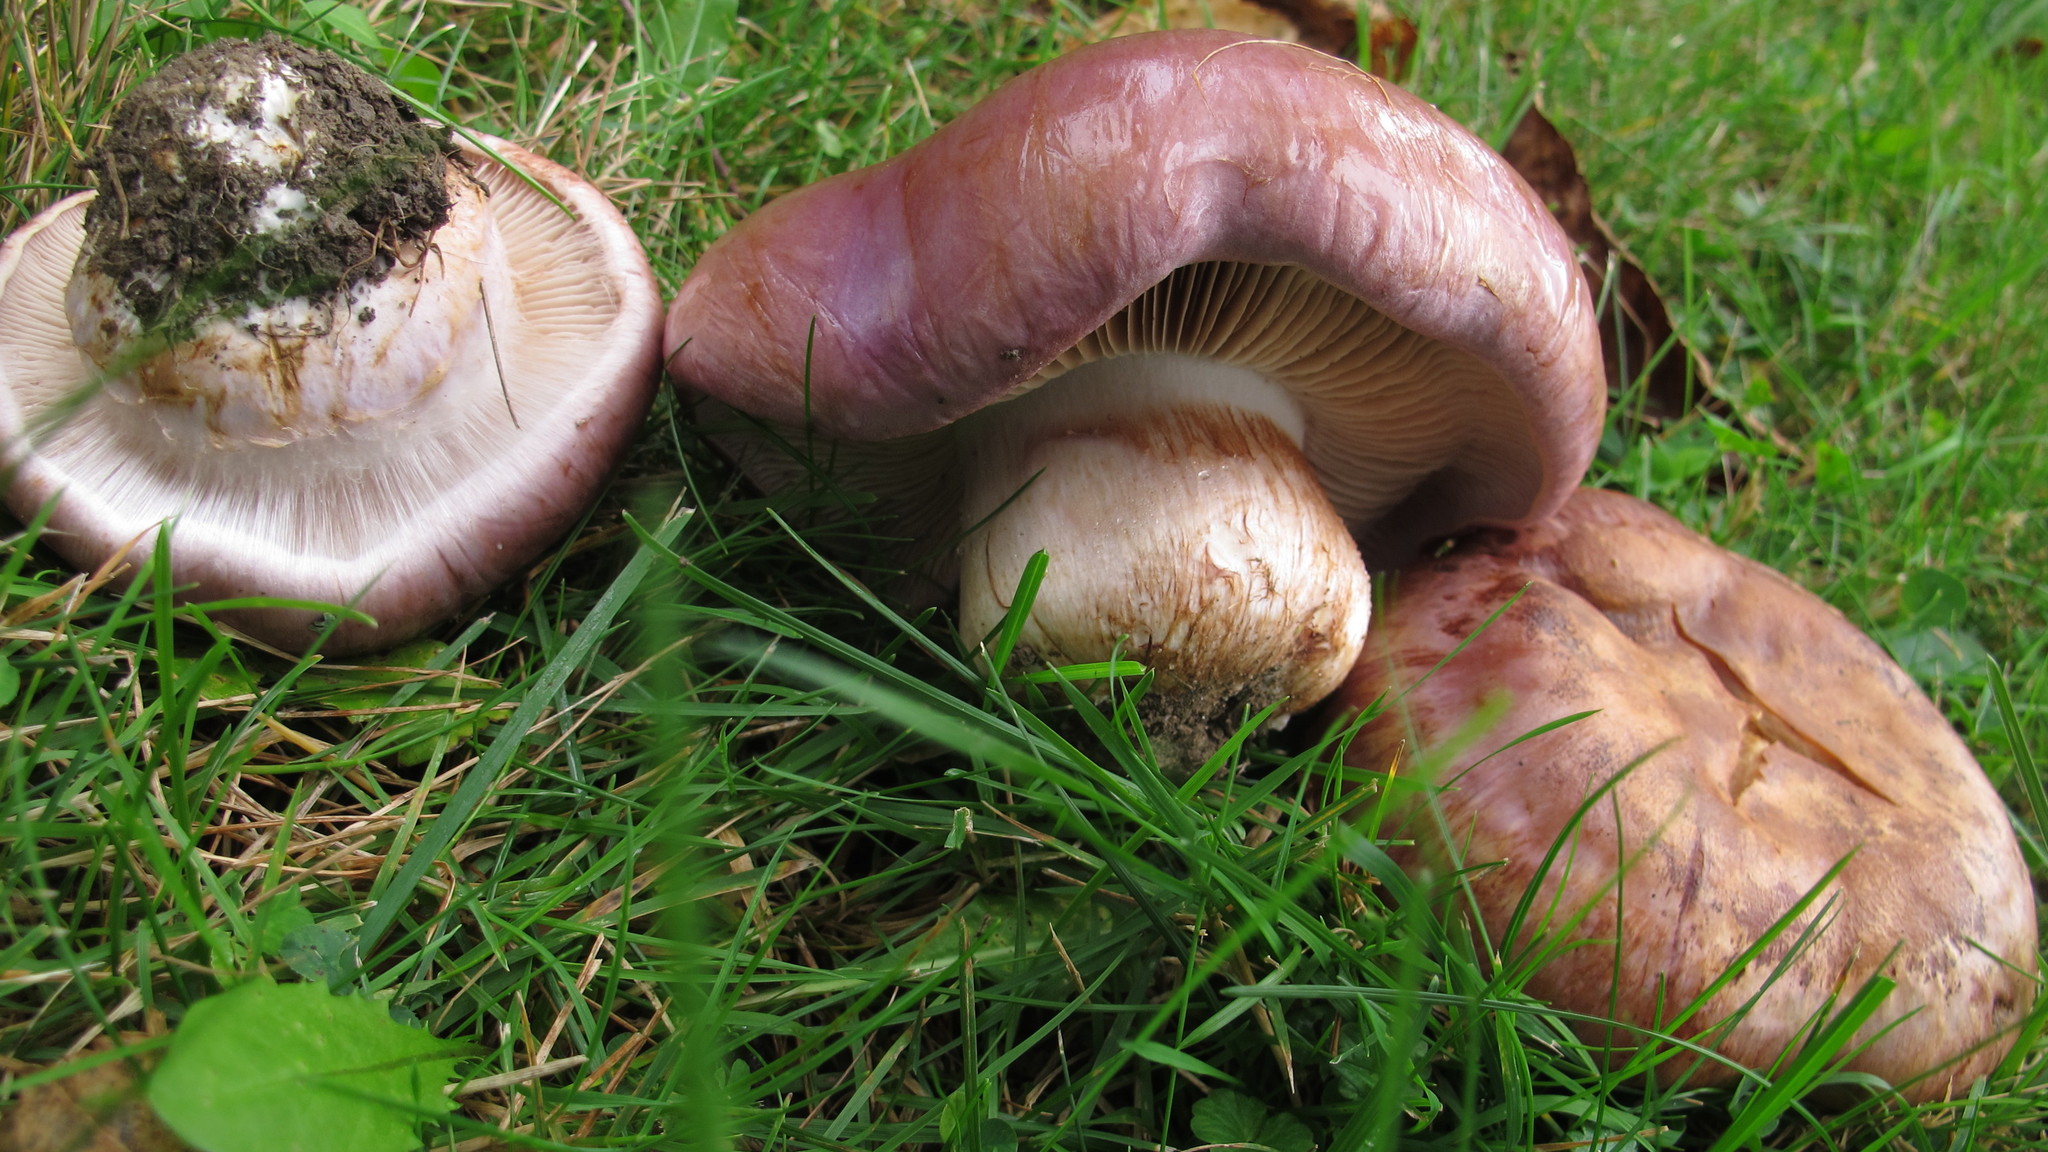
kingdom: Fungi
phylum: Basidiomycota
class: Agaricomycetes
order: Agaricales
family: Cortinariaceae
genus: Phlegmacium
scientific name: Phlegmacium balteatocumatile
